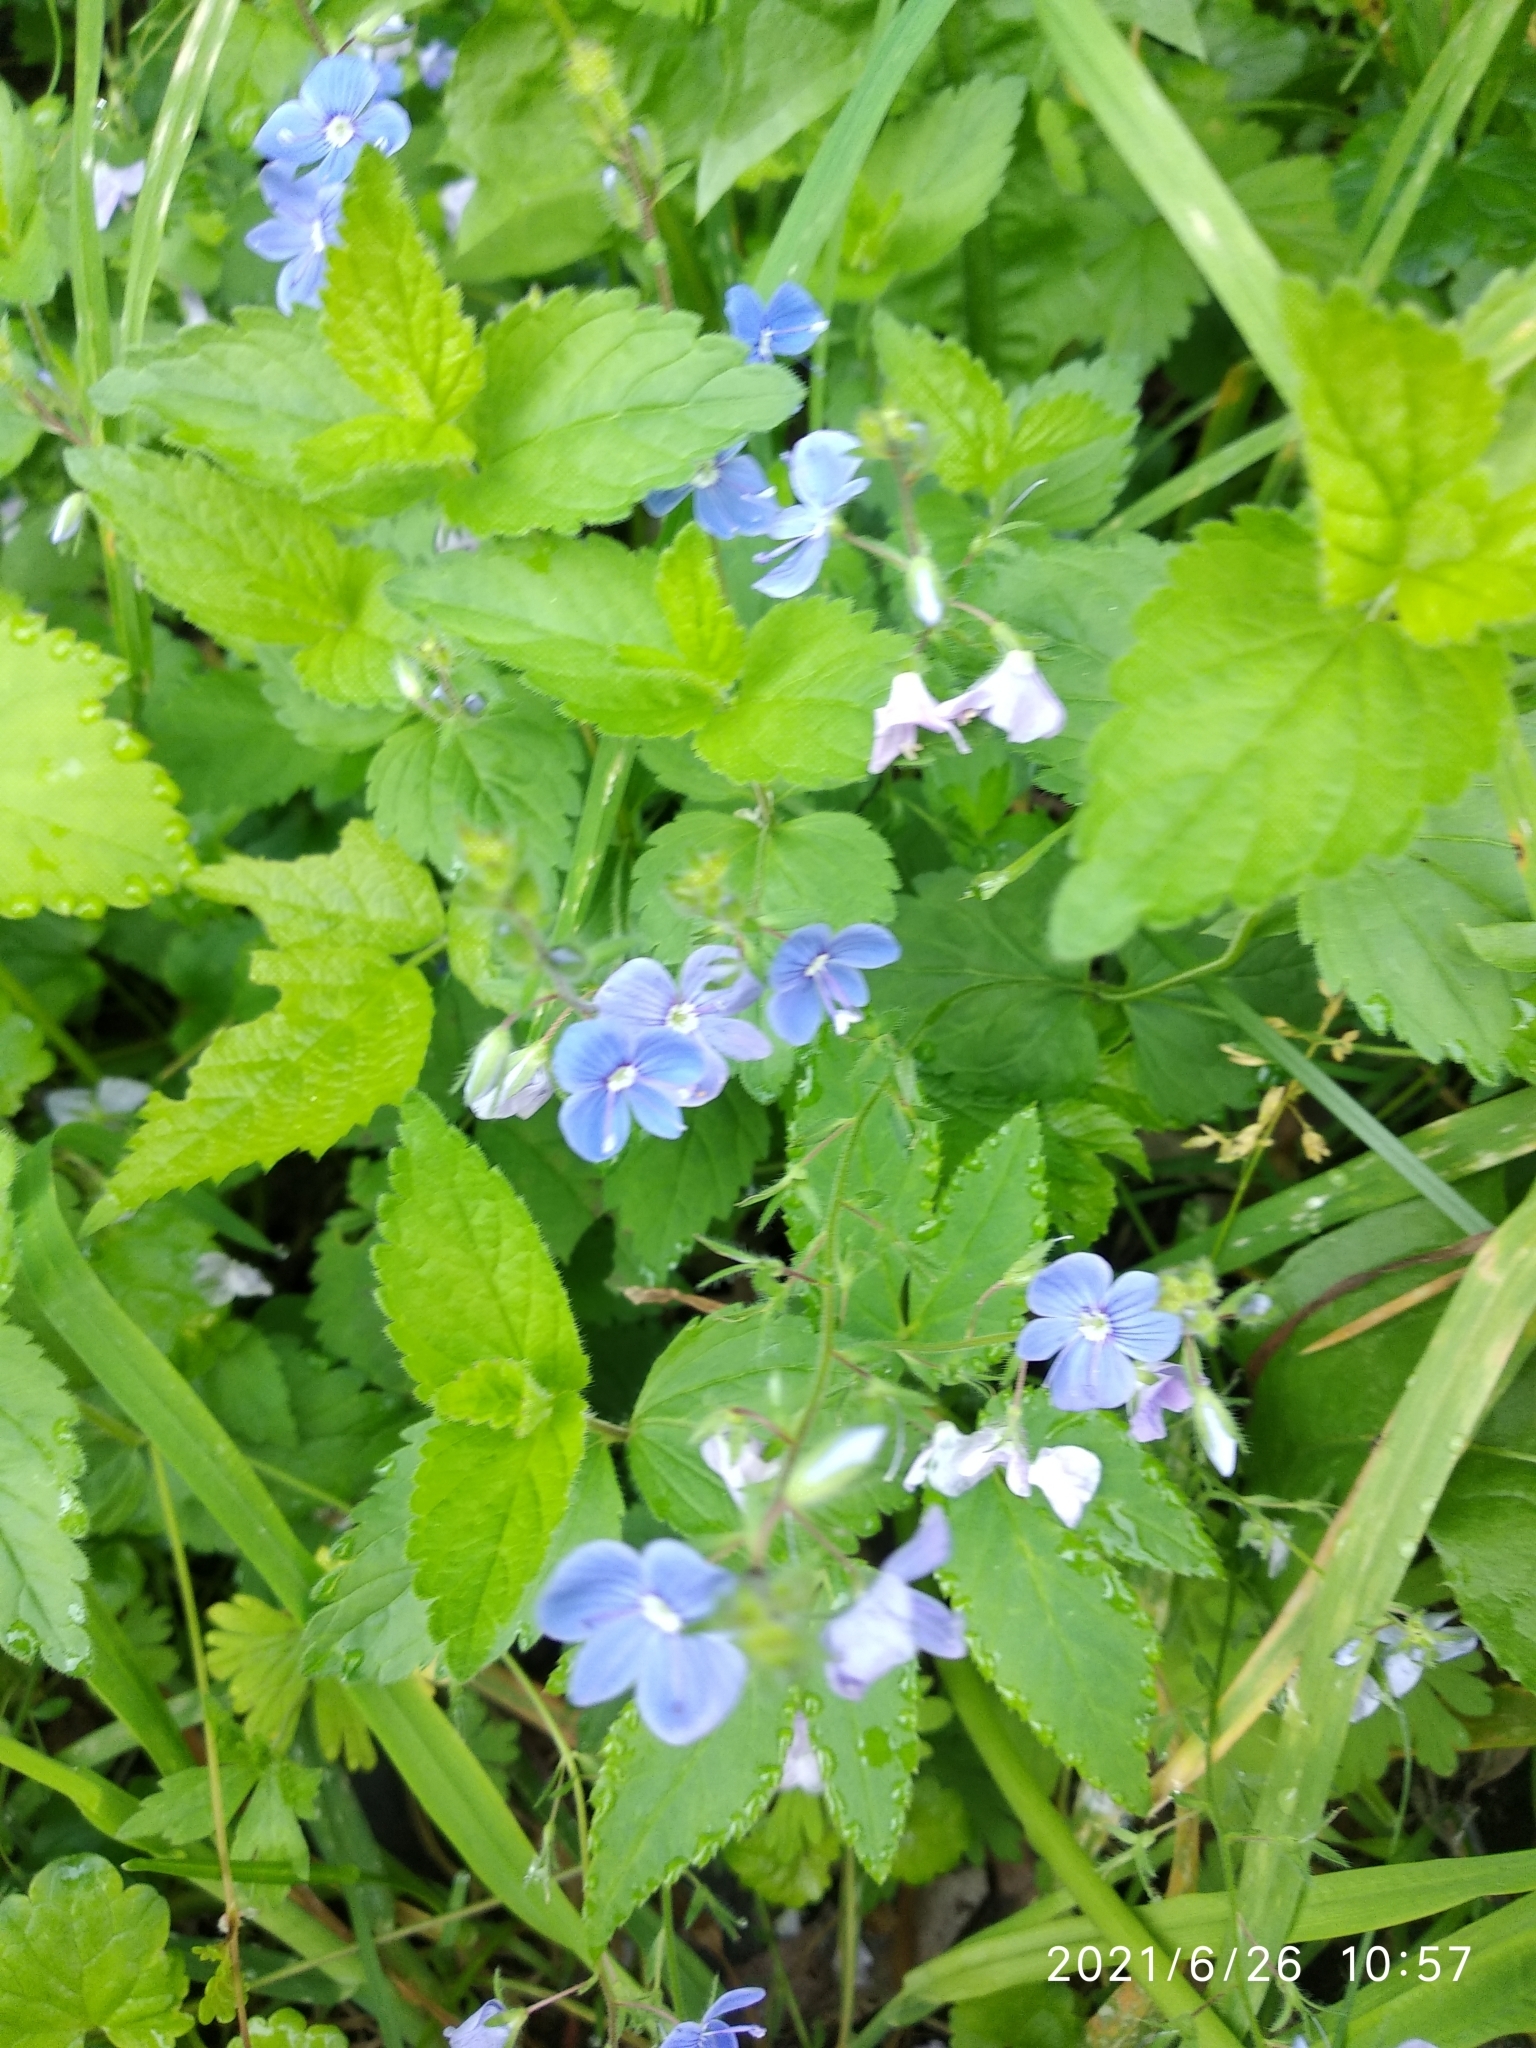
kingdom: Plantae
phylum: Tracheophyta
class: Magnoliopsida
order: Lamiales
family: Plantaginaceae
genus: Veronica
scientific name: Veronica chamaedrys
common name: Germander speedwell
